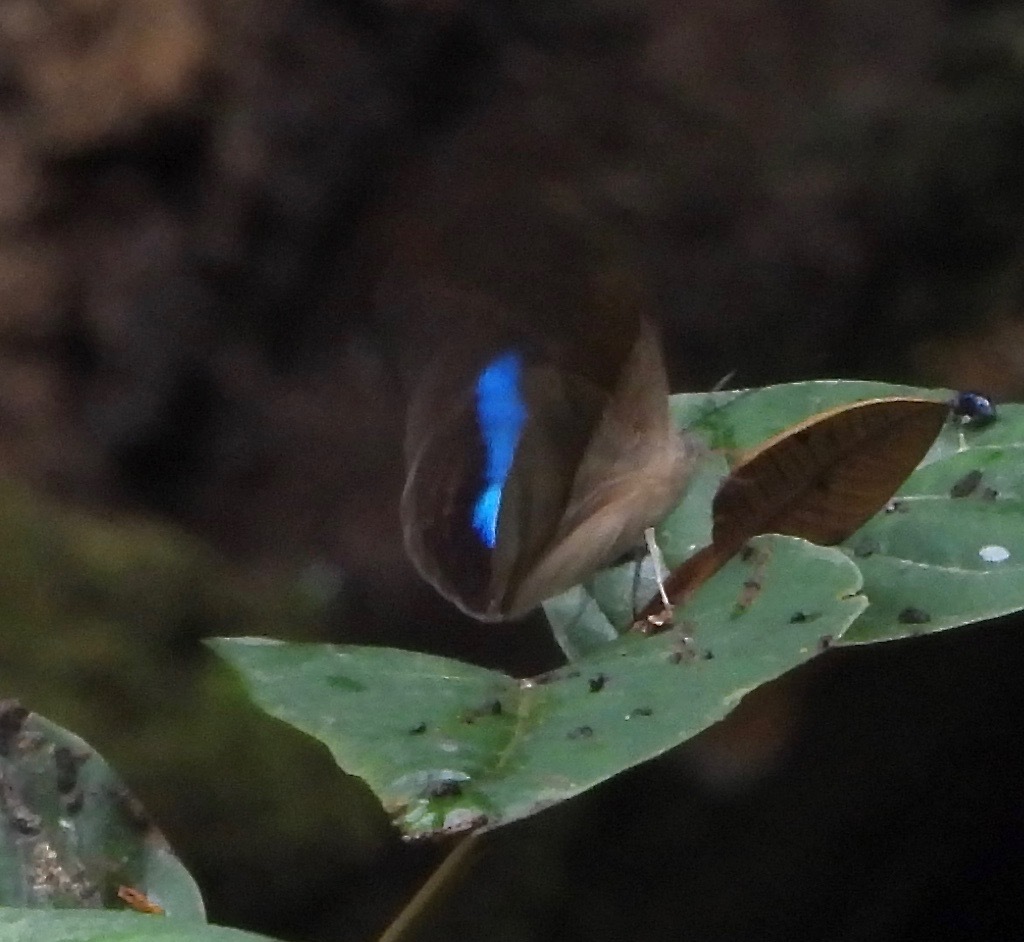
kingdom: Animalia
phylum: Arthropoda
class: Insecta
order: Lepidoptera
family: Nymphalidae
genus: Prepona
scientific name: Prepona
